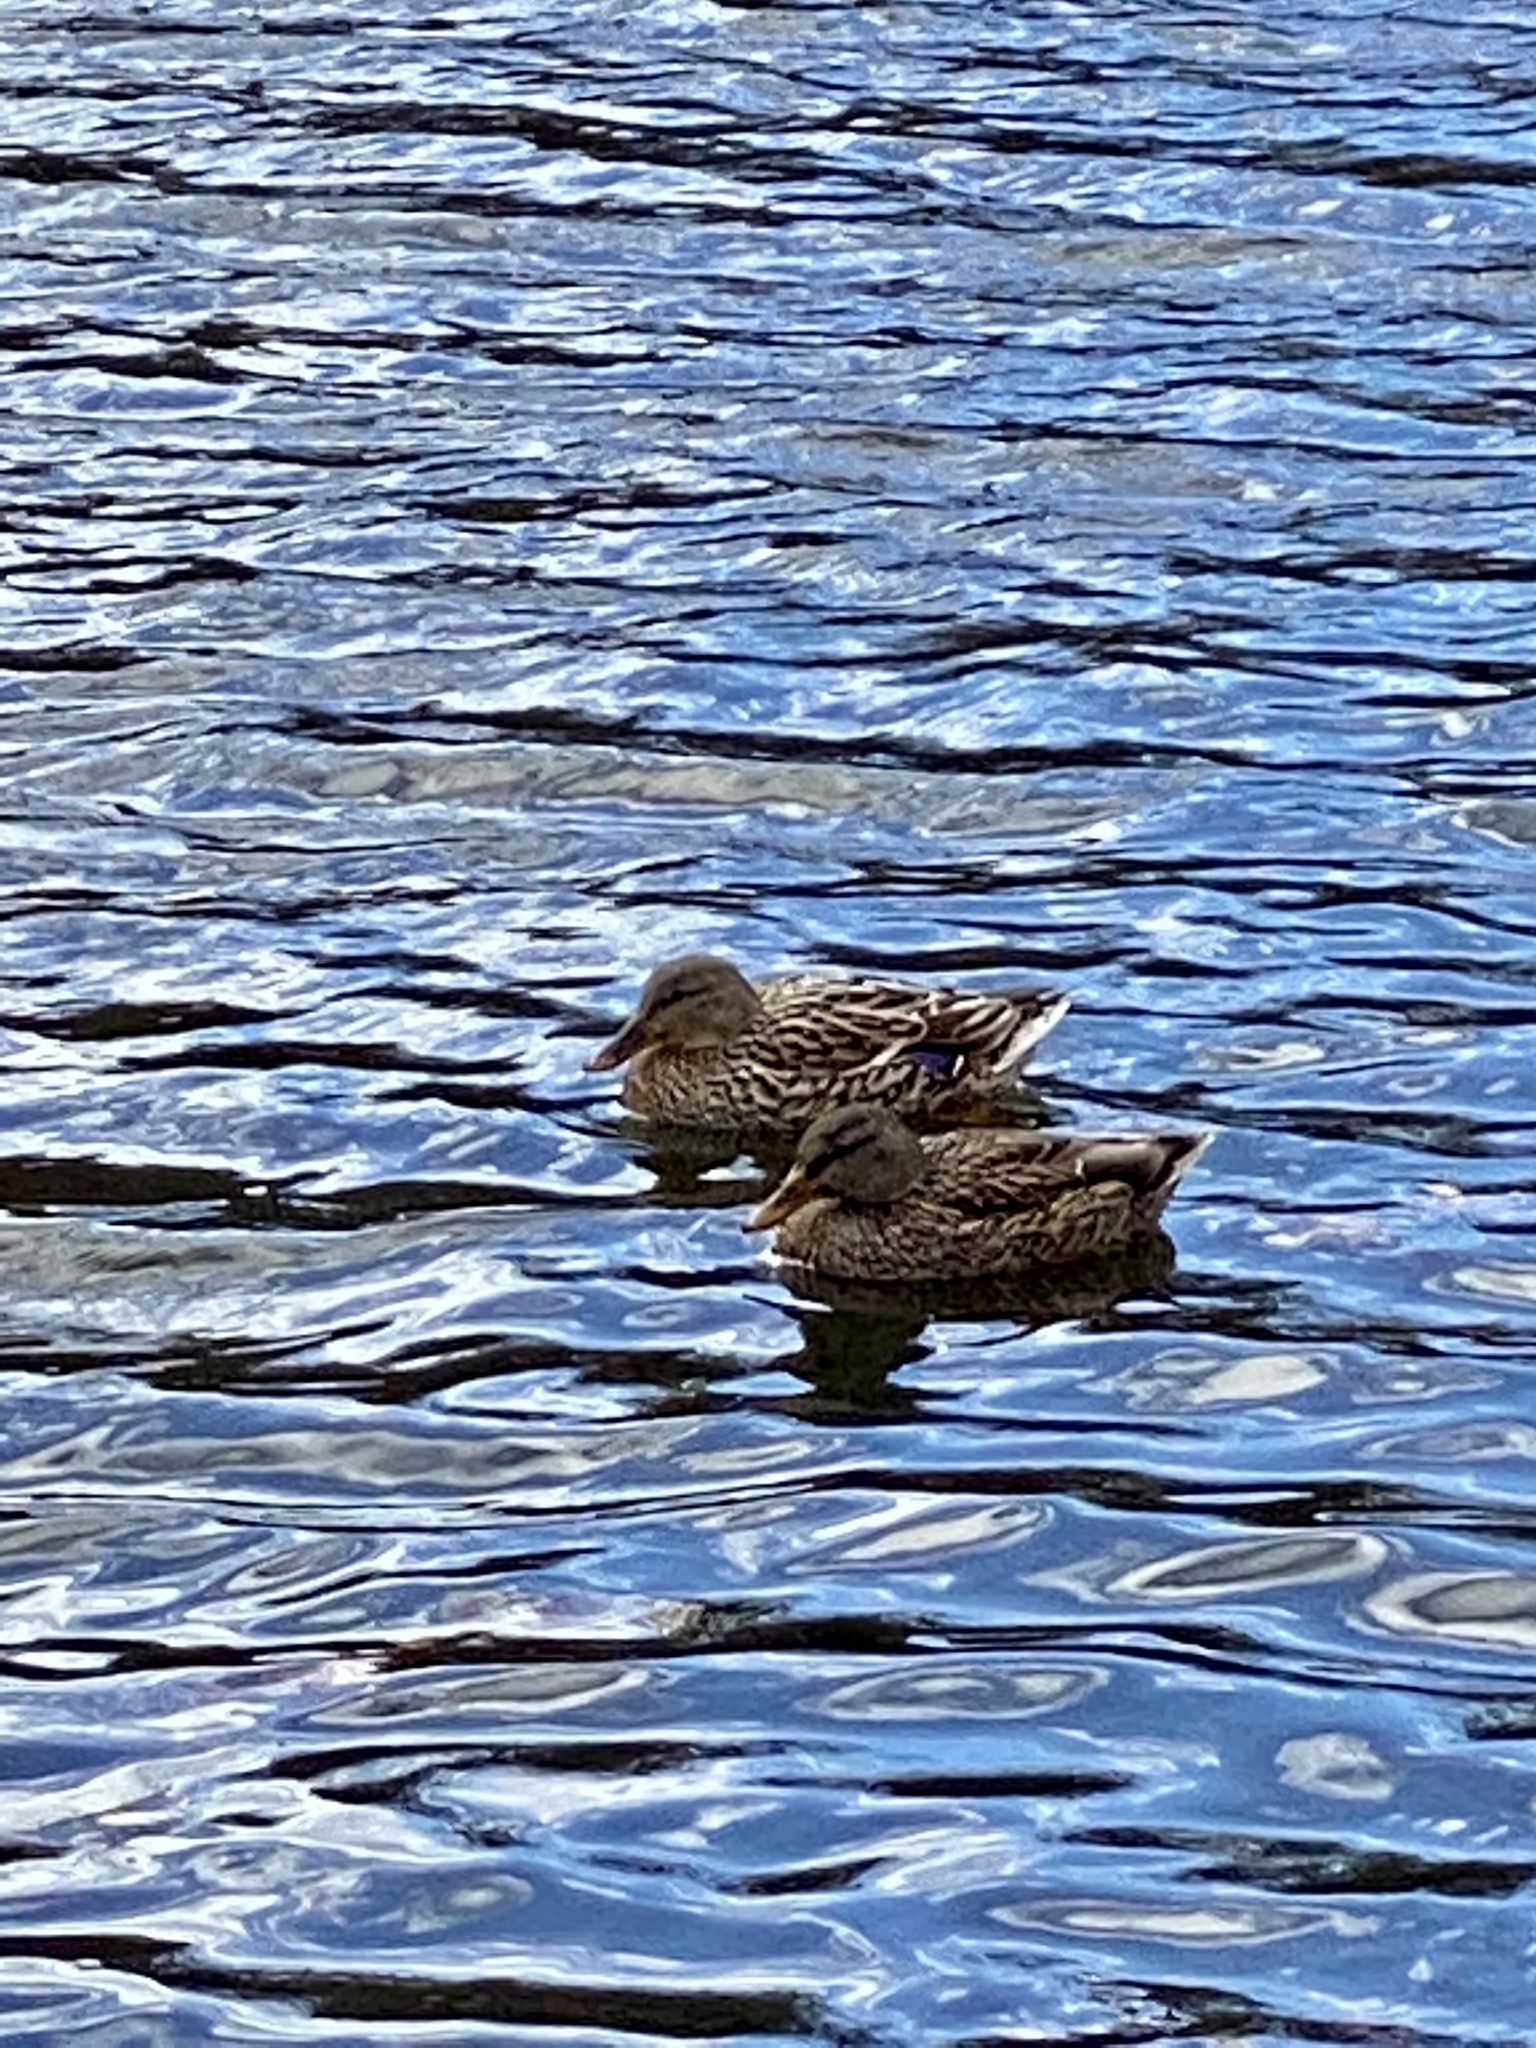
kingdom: Animalia
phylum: Chordata
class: Aves
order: Anseriformes
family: Anatidae
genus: Anas
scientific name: Anas platyrhynchos
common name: Mallard
